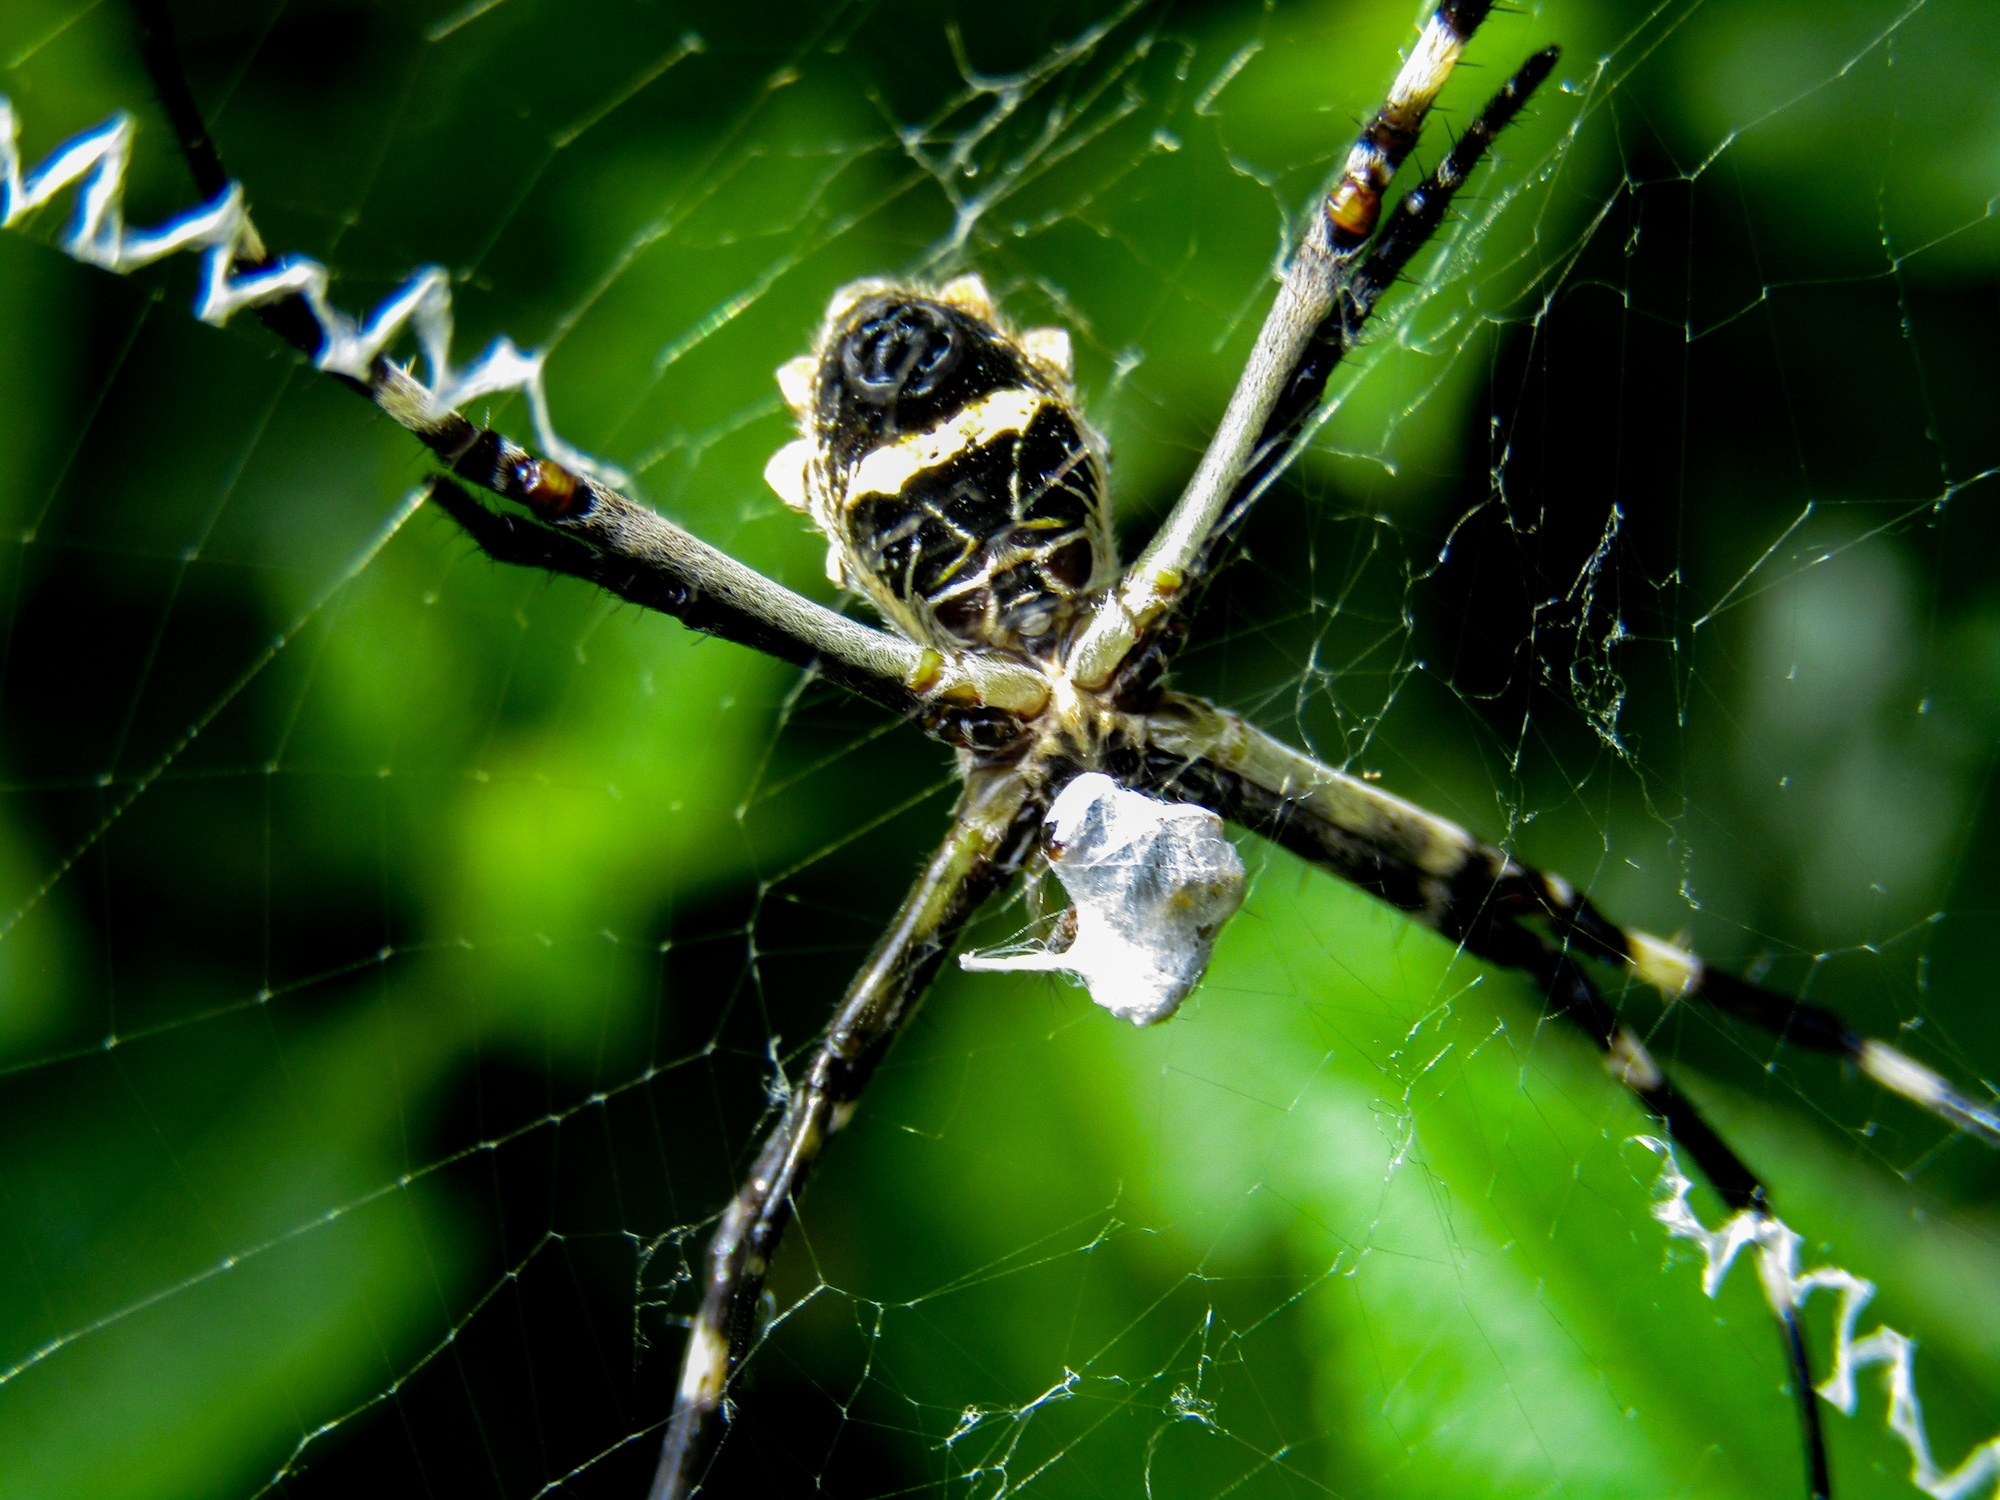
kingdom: Animalia
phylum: Arthropoda
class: Arachnida
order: Araneae
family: Araneidae
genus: Argiope
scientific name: Argiope argentata
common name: Orb weavers
